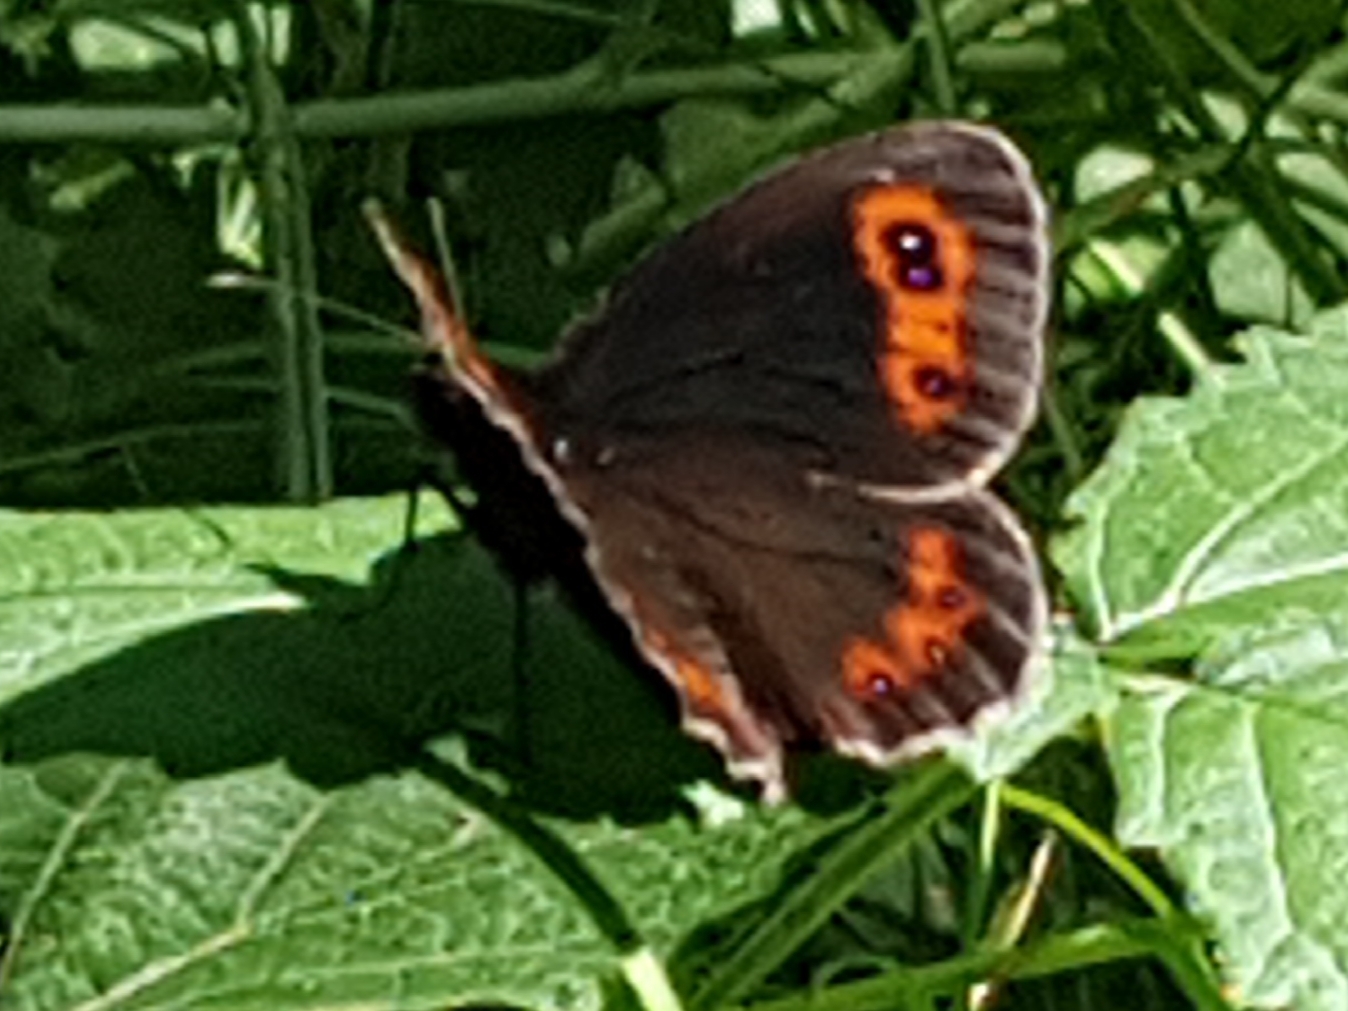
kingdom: Animalia
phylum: Arthropoda
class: Insecta
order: Lepidoptera
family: Nymphalidae
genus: Erebia
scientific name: Erebia aethiops
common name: Scotch argus
